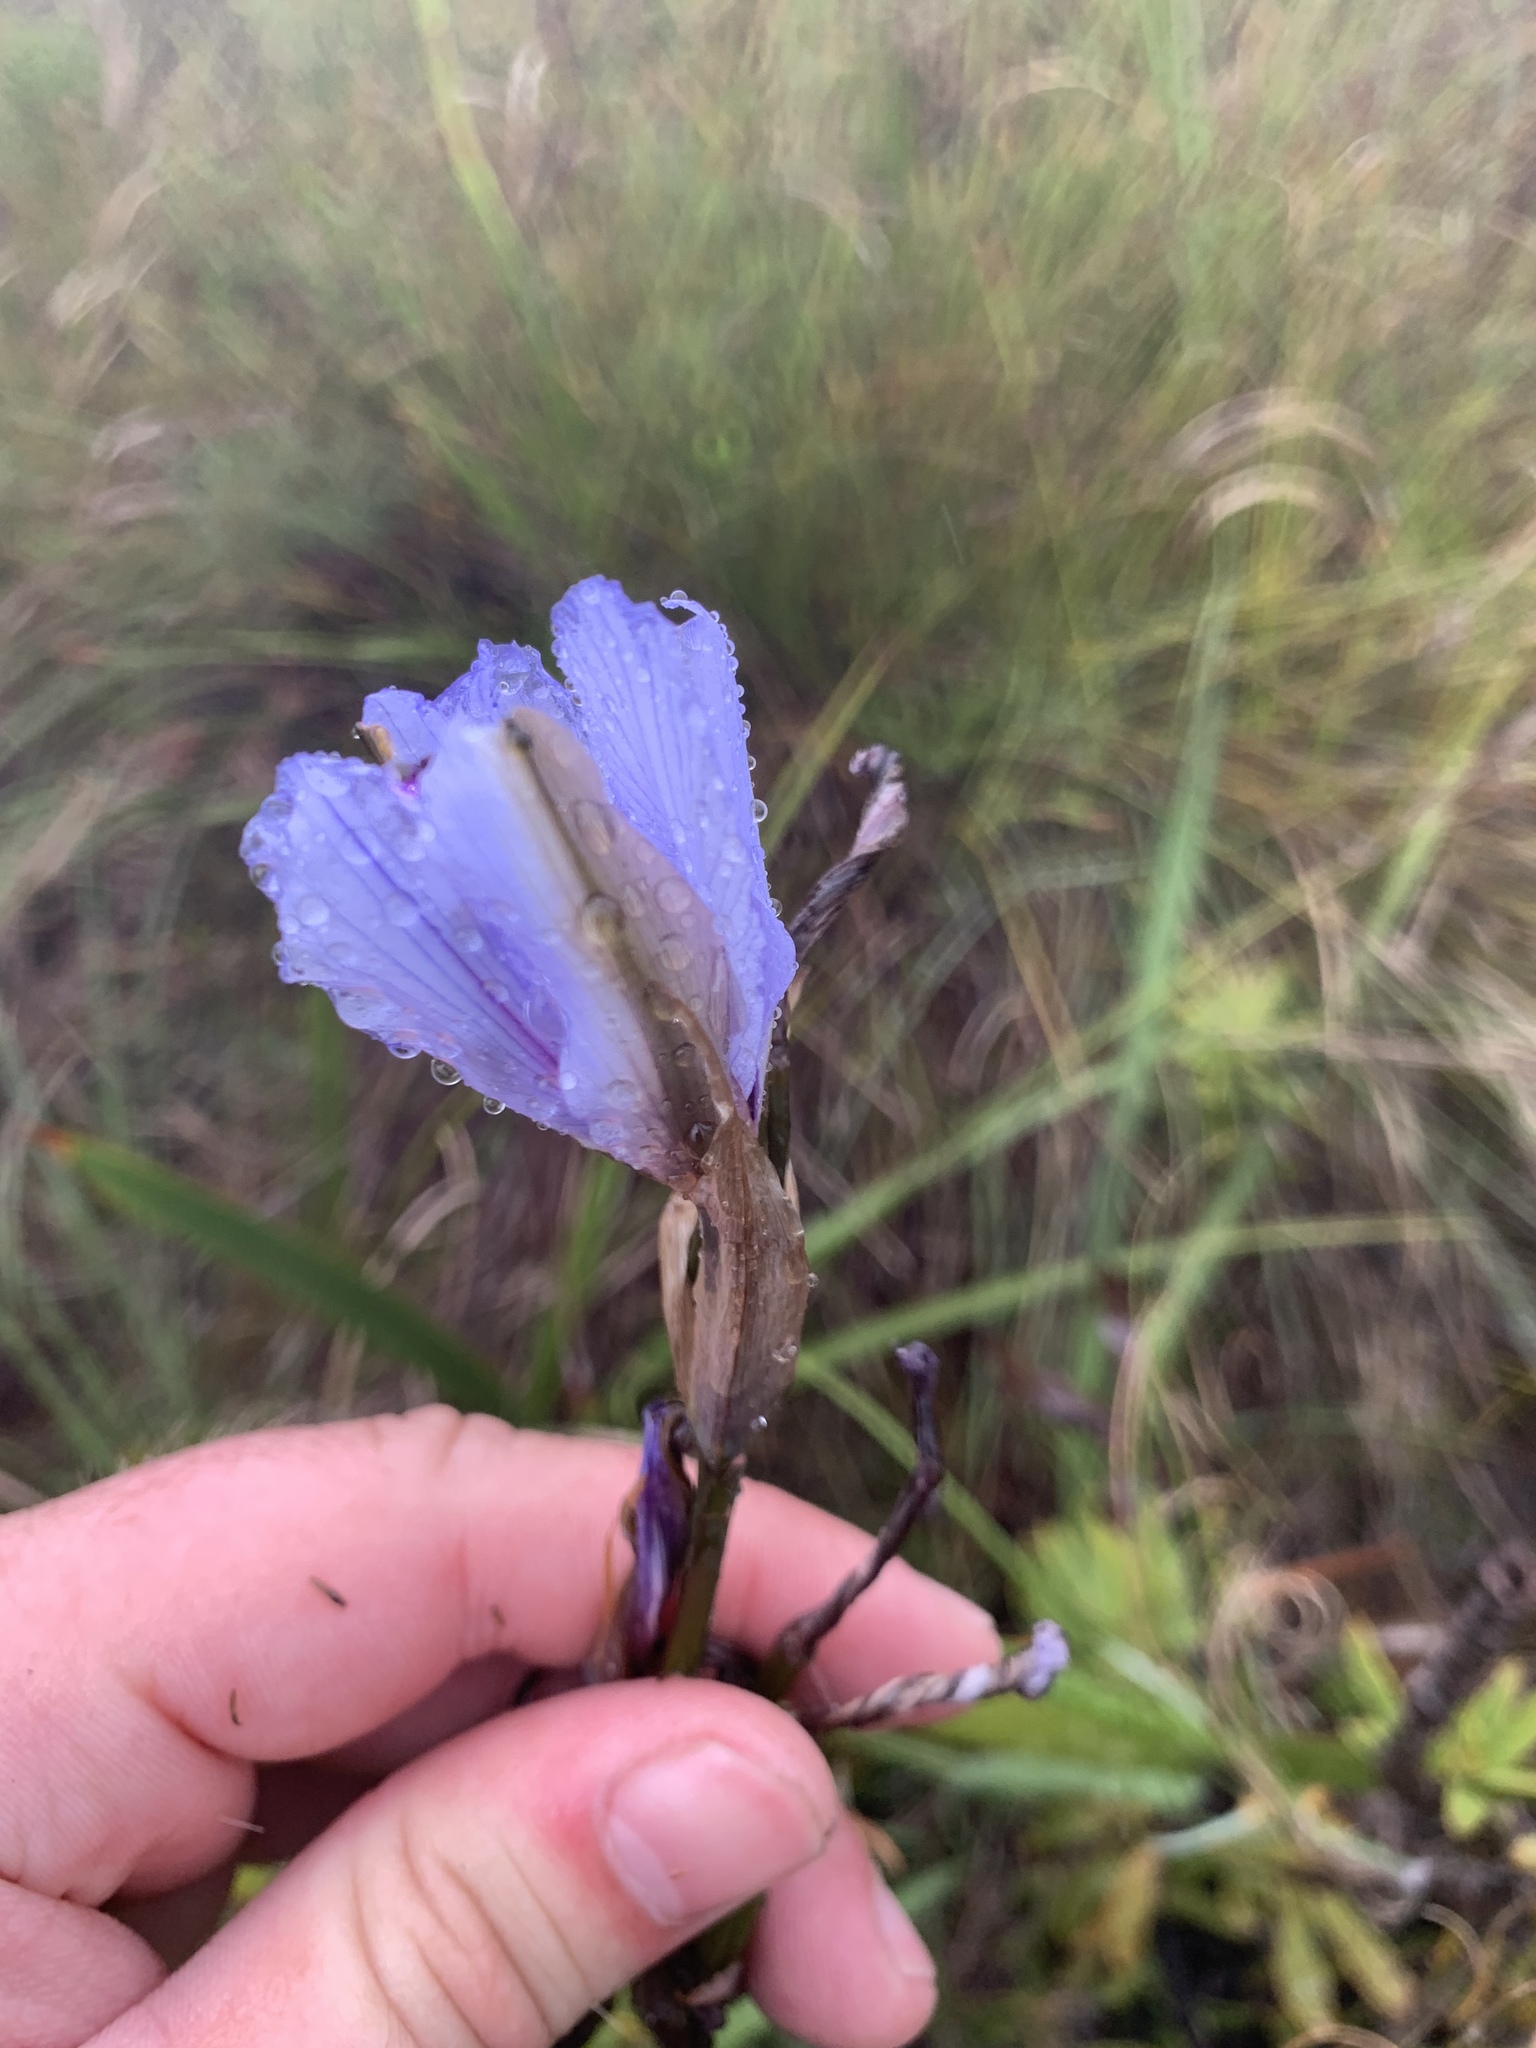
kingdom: Plantae
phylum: Tracheophyta
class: Liliopsida
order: Asparagales
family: Iridaceae
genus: Aristea
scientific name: Aristea spiralis
